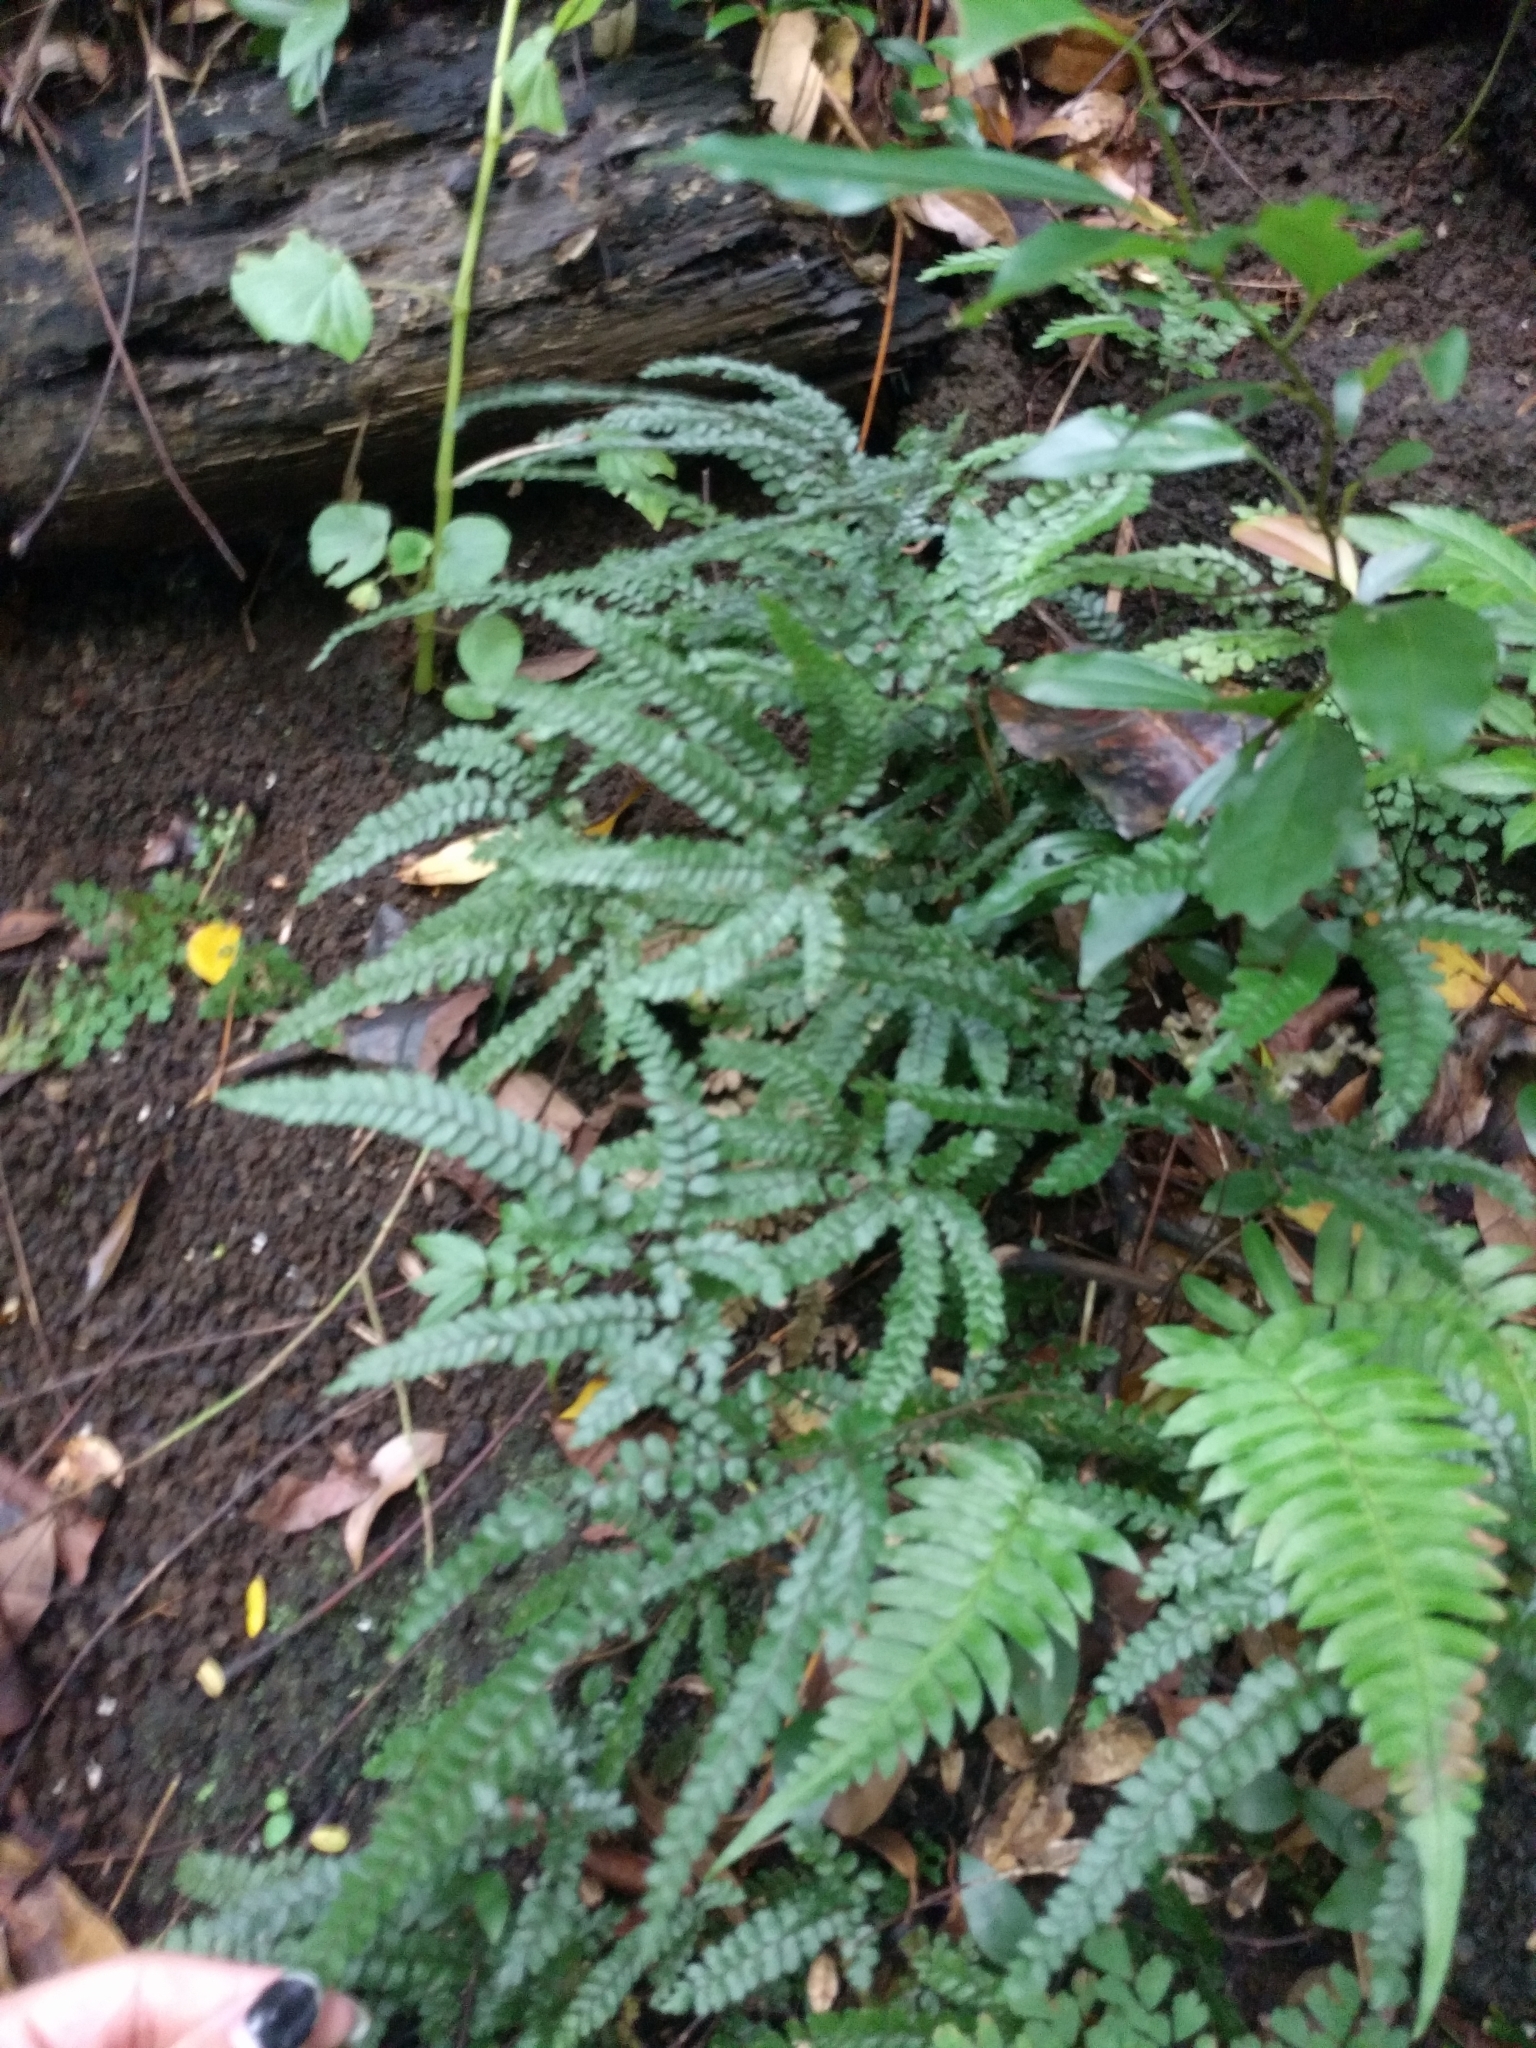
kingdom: Plantae
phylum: Tracheophyta
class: Polypodiopsida
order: Polypodiales
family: Pteridaceae
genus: Adiantum
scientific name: Adiantum hispidulum
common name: Rough maidenhair
